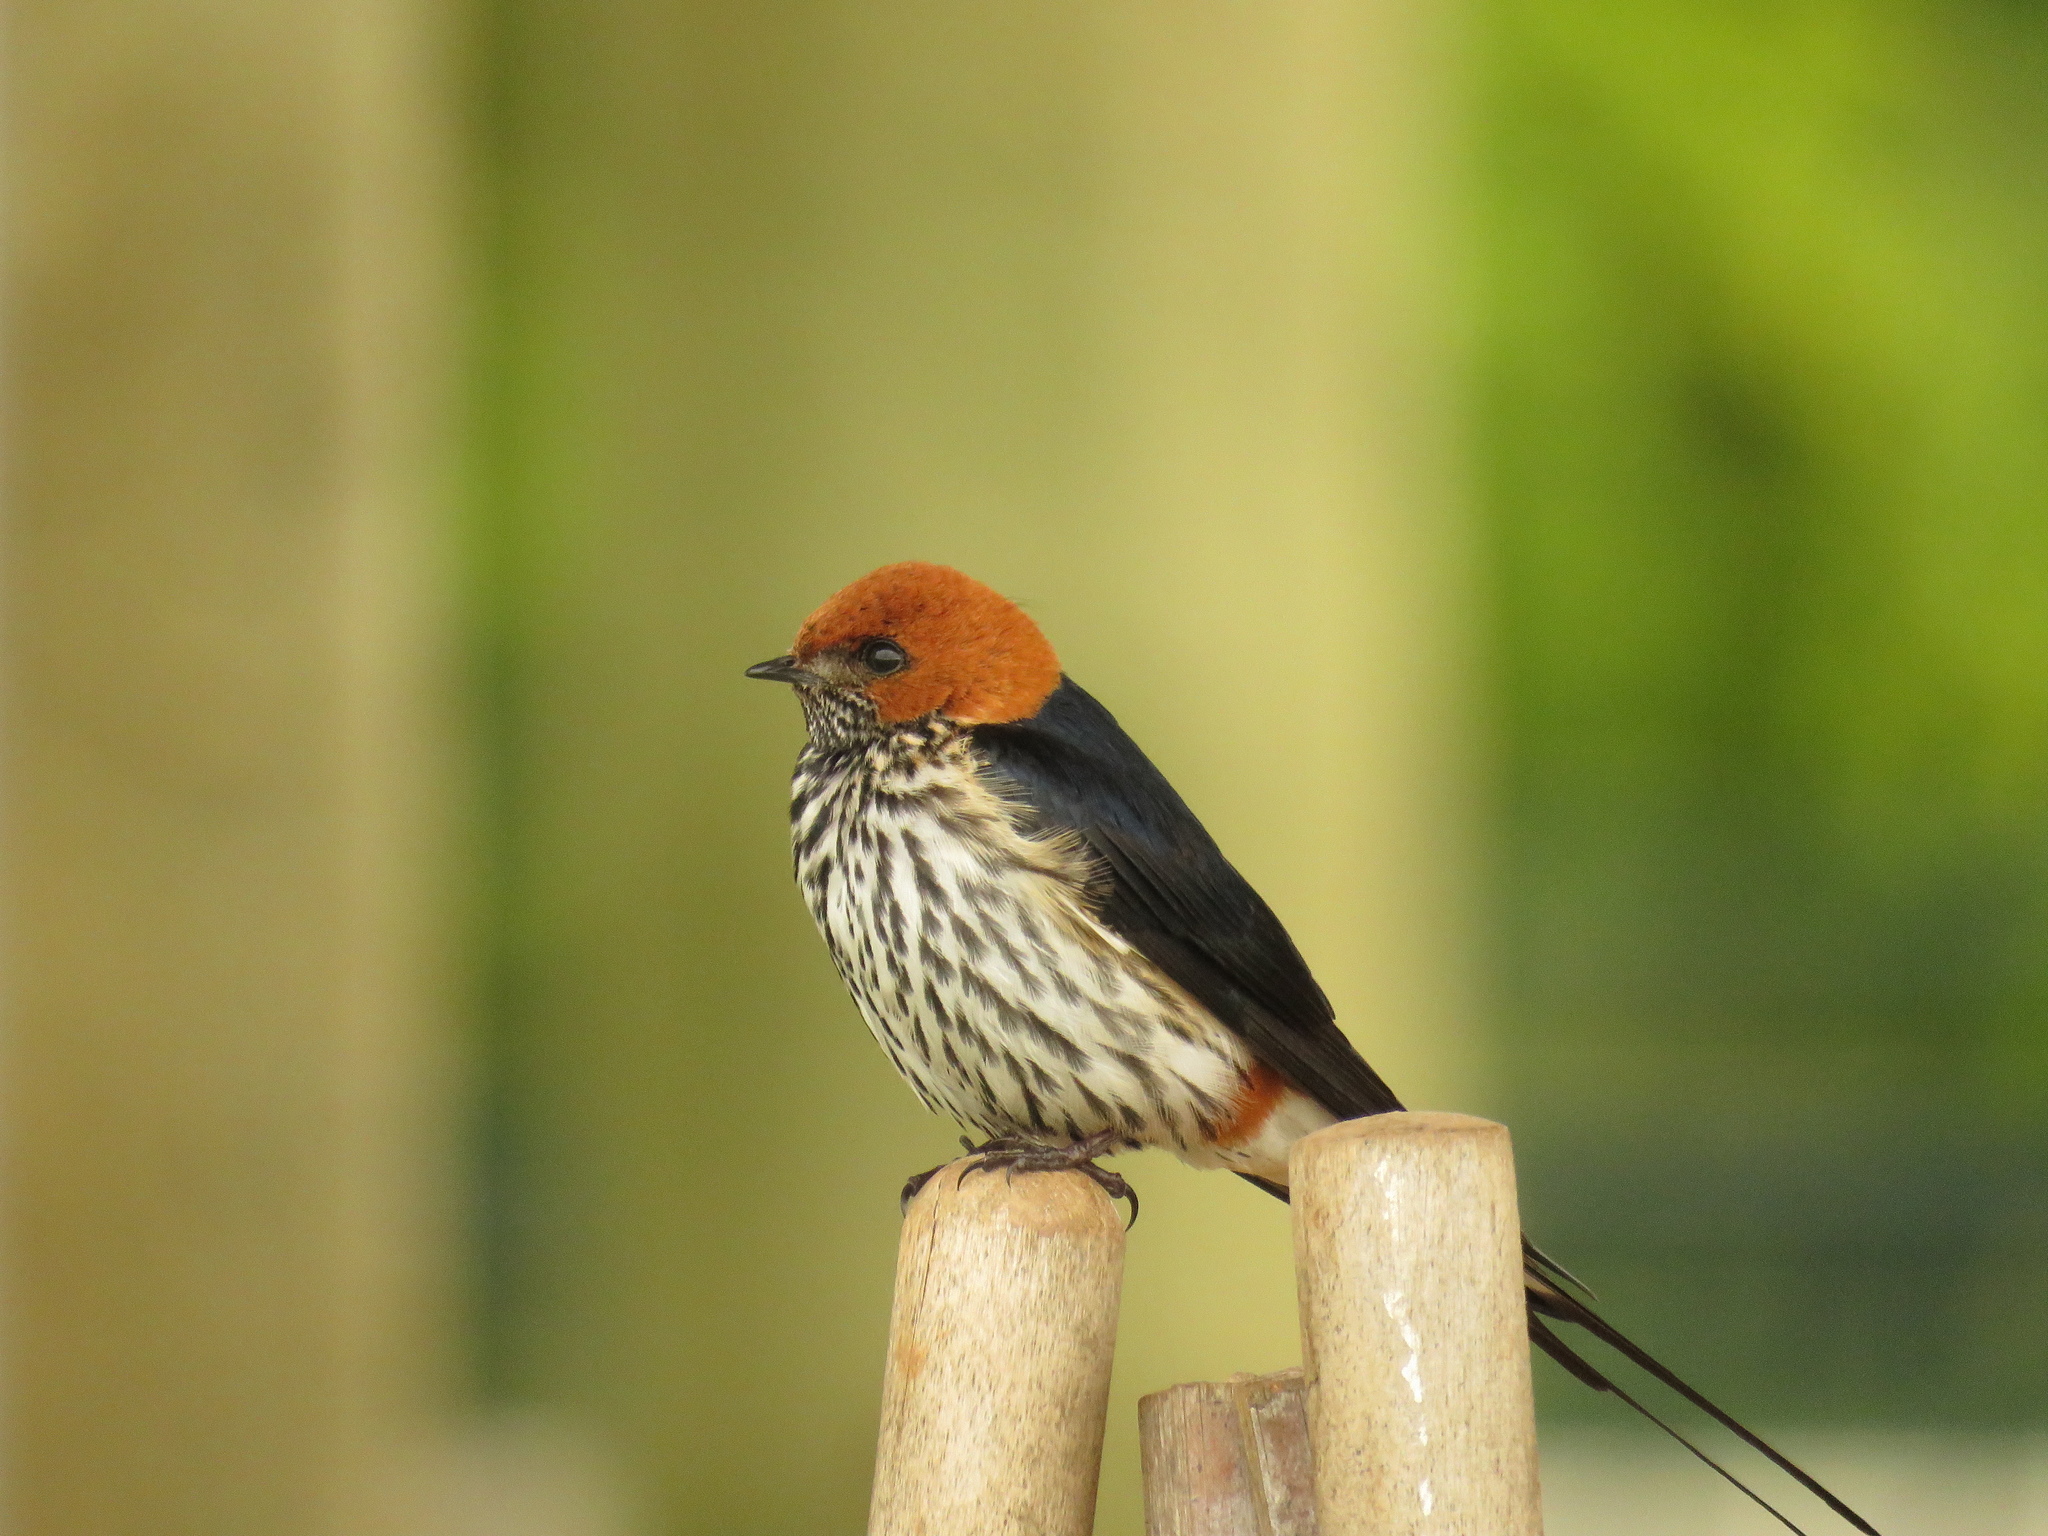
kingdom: Animalia
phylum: Chordata
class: Aves
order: Passeriformes
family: Hirundinidae
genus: Cecropis
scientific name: Cecropis abyssinica
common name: Lesser striped-swallow
